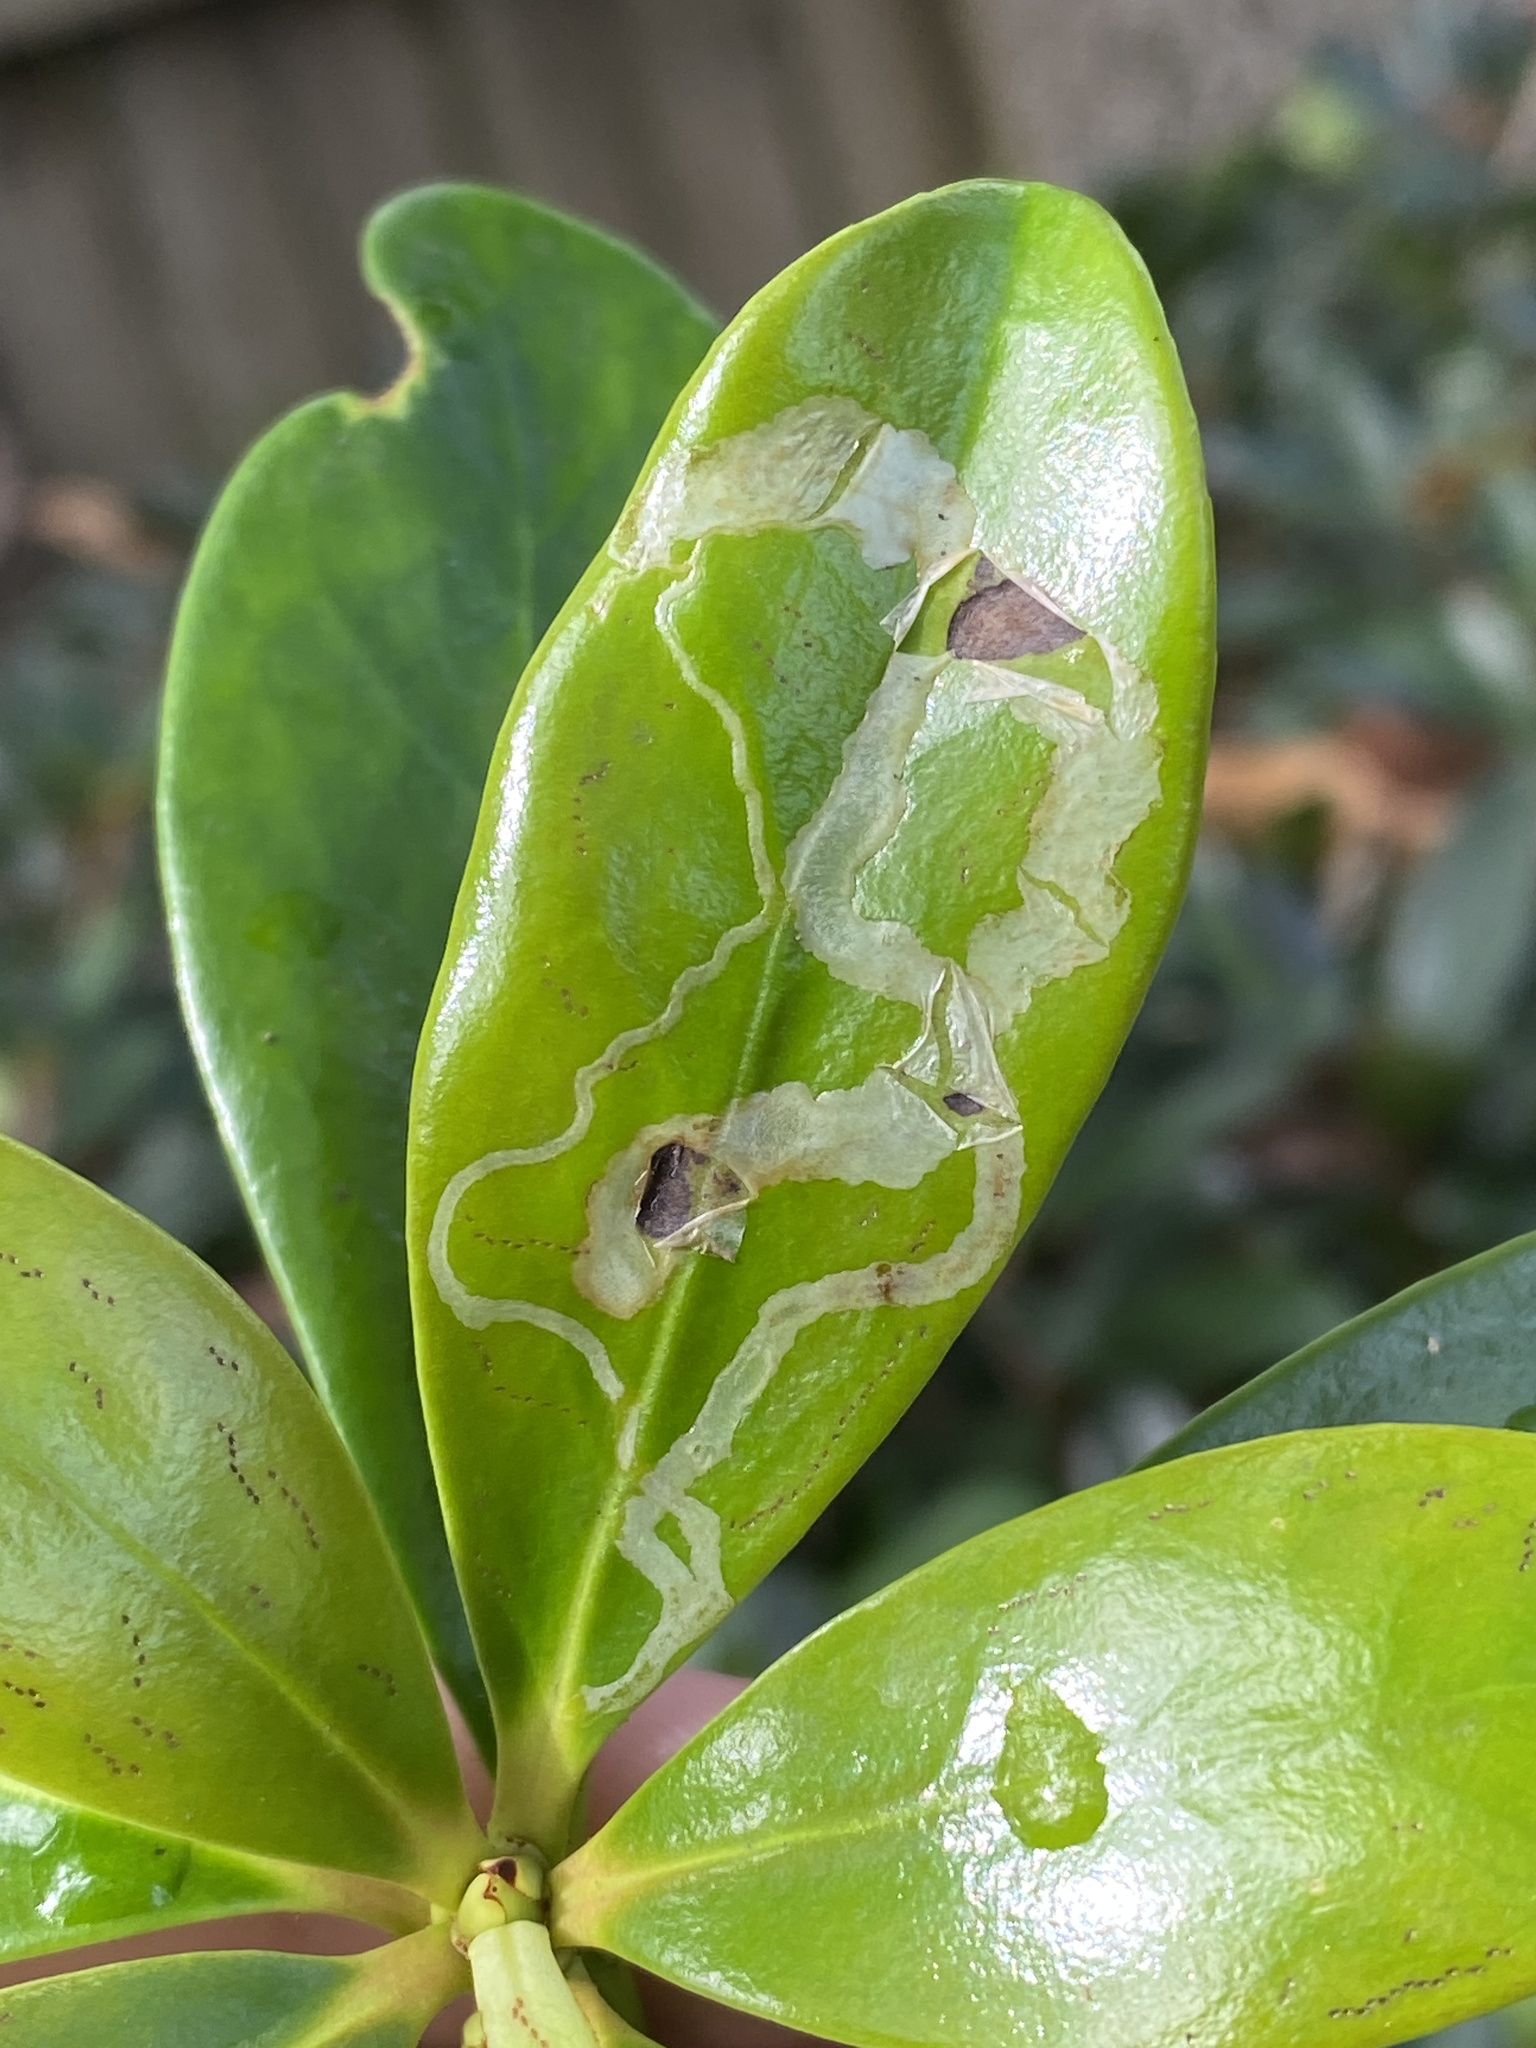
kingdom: Animalia
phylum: Arthropoda
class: Insecta
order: Diptera
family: Agromyzidae
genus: Liriomyza
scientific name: Liriomyza schmidti
